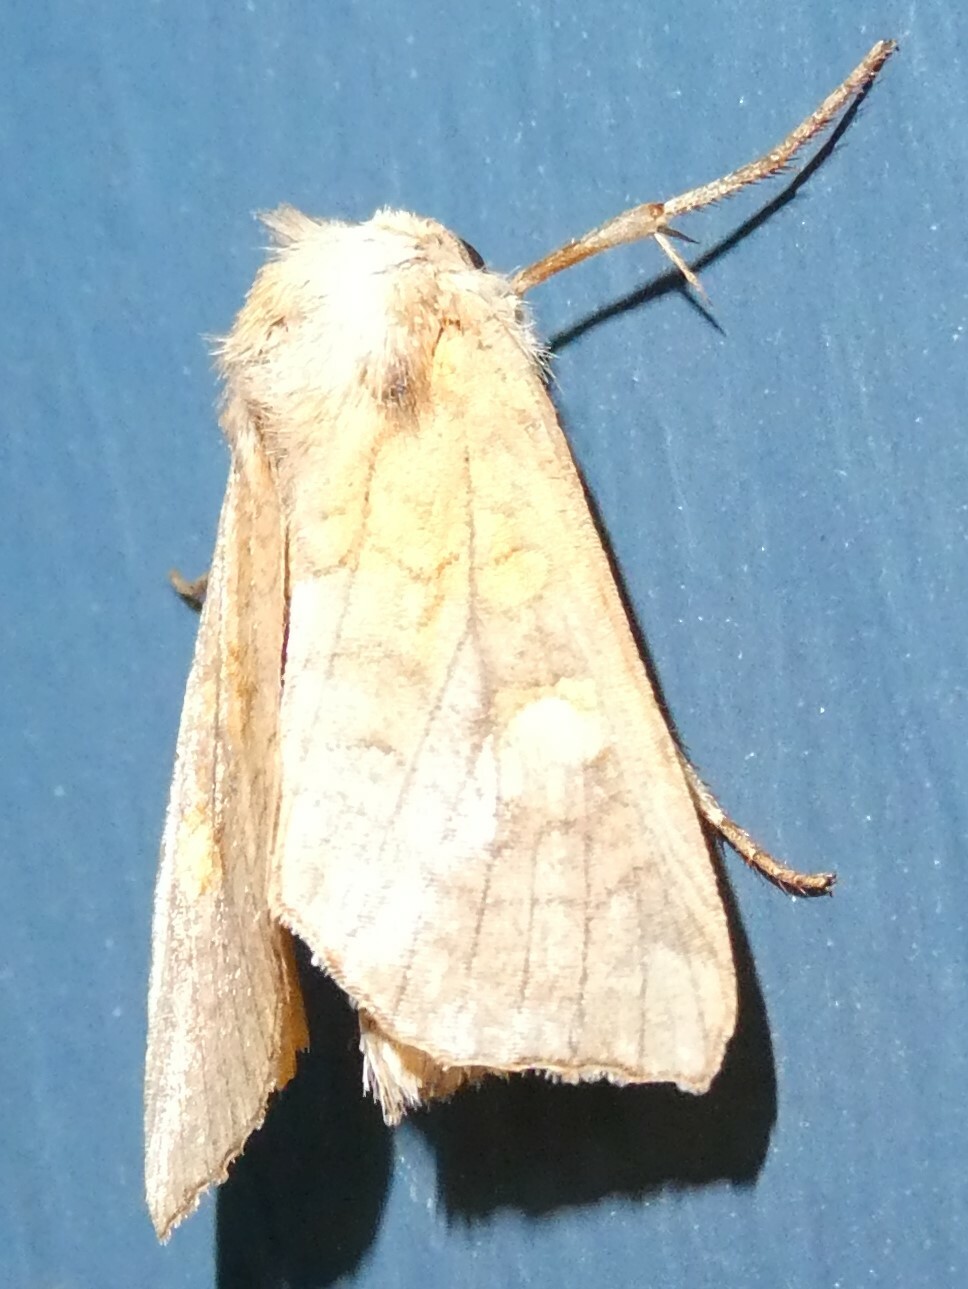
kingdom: Animalia
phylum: Arthropoda
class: Insecta
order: Lepidoptera
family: Noctuidae
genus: Amphipoea
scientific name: Amphipoea
